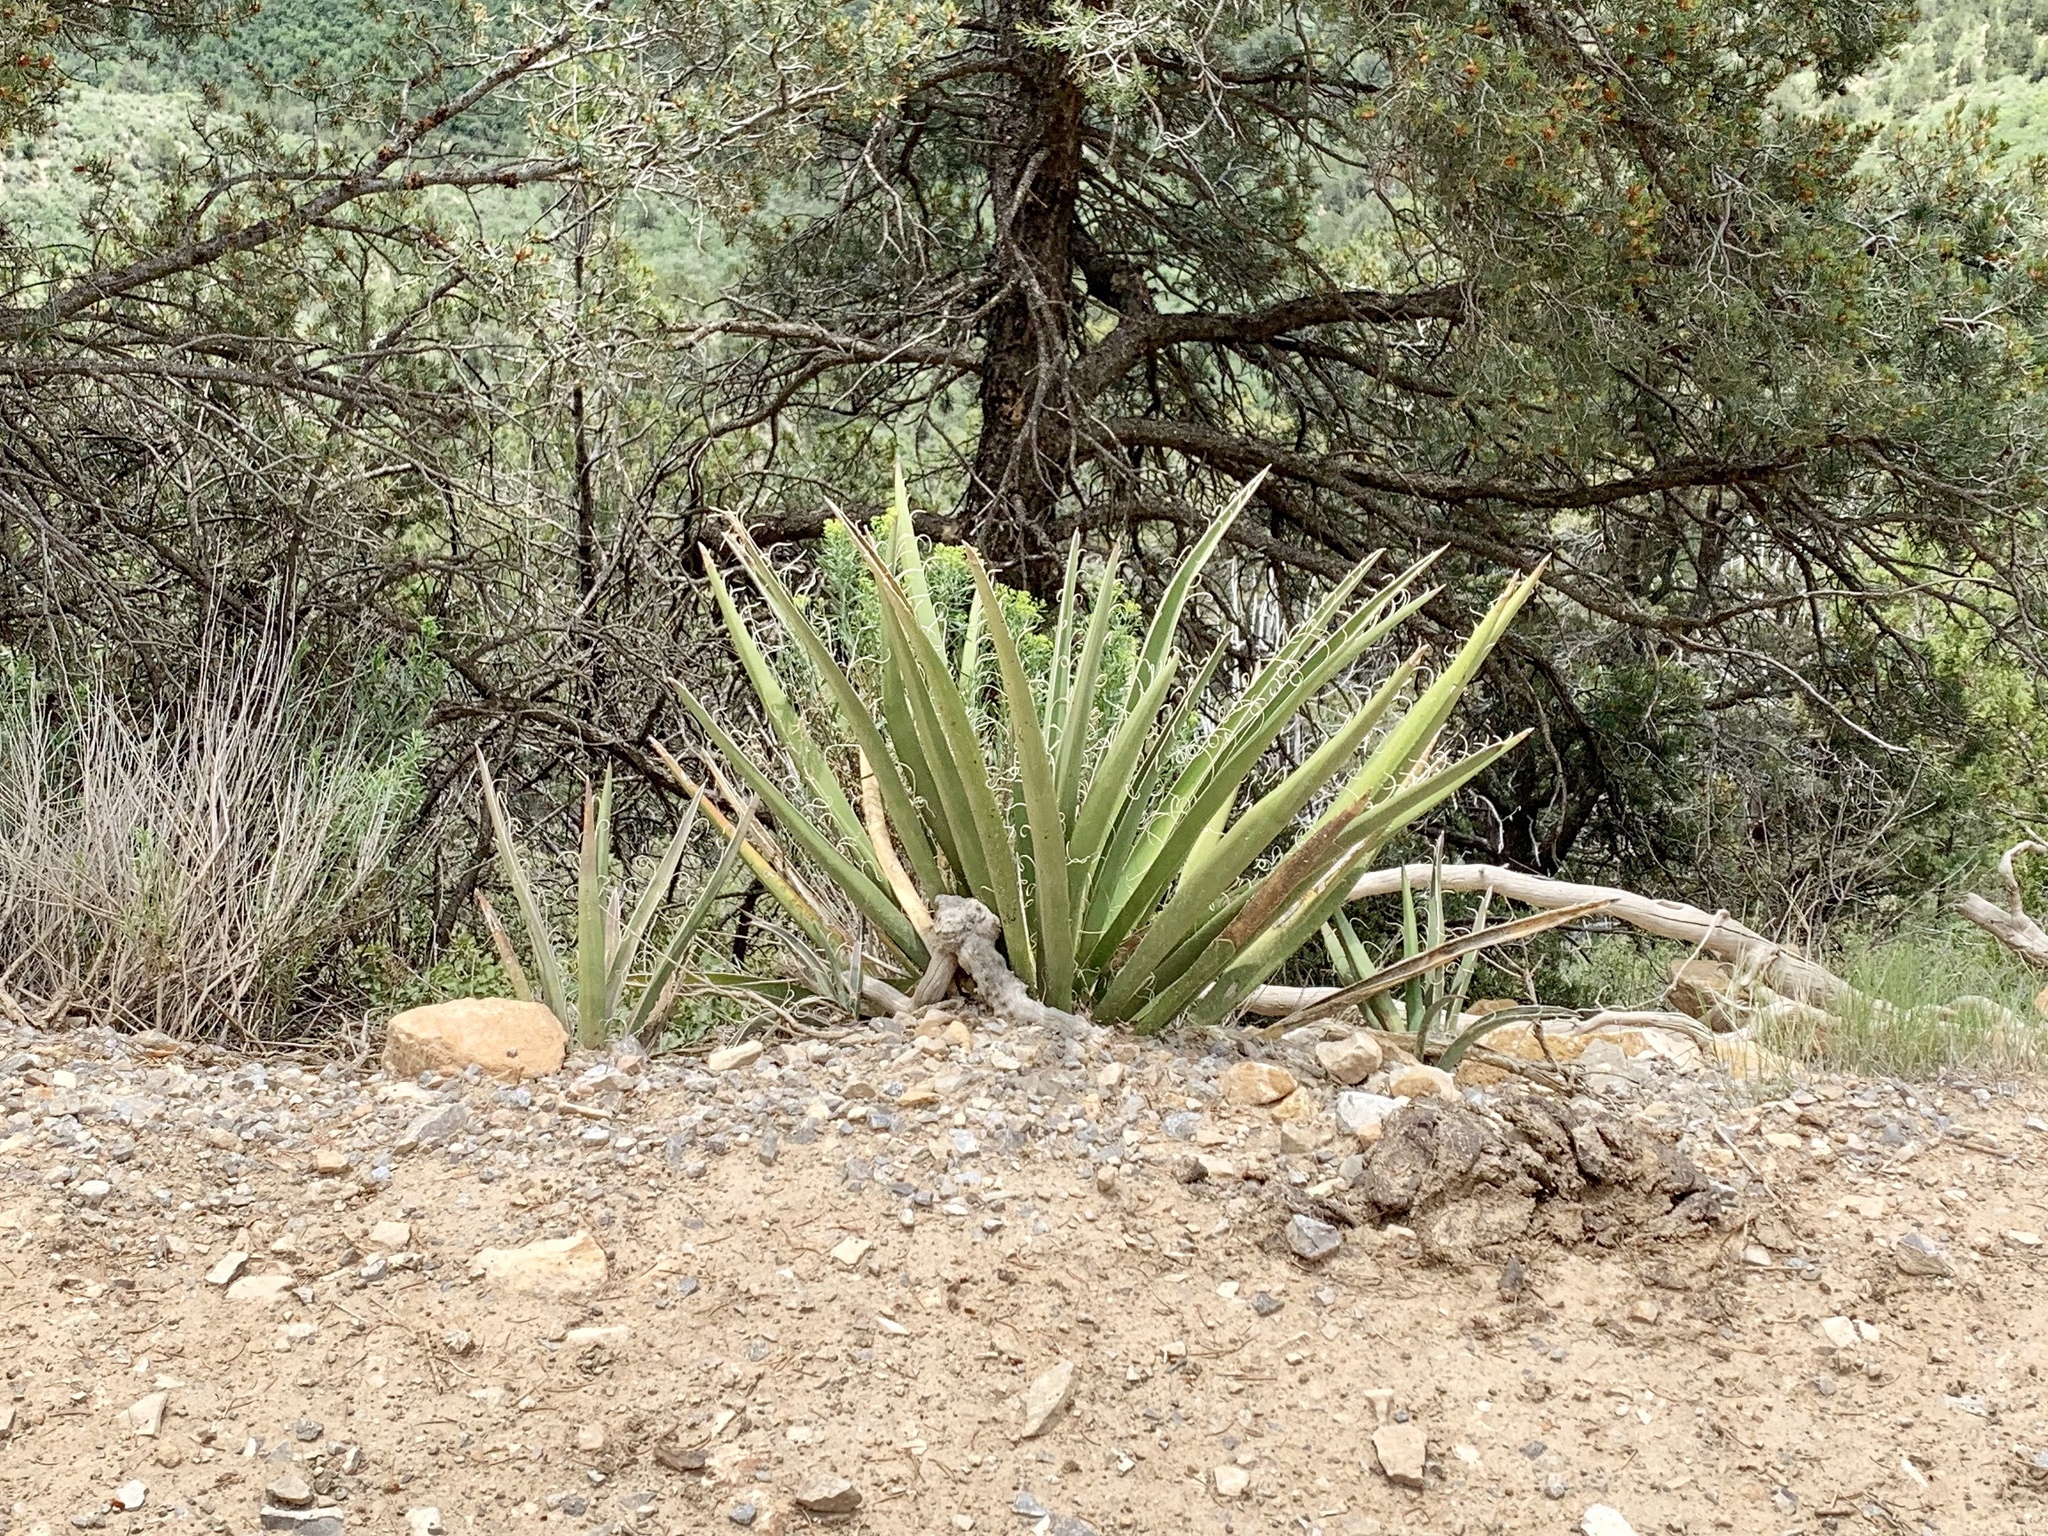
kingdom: Plantae
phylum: Tracheophyta
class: Liliopsida
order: Asparagales
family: Asparagaceae
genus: Yucca
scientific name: Yucca baccata
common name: Banana yucca
